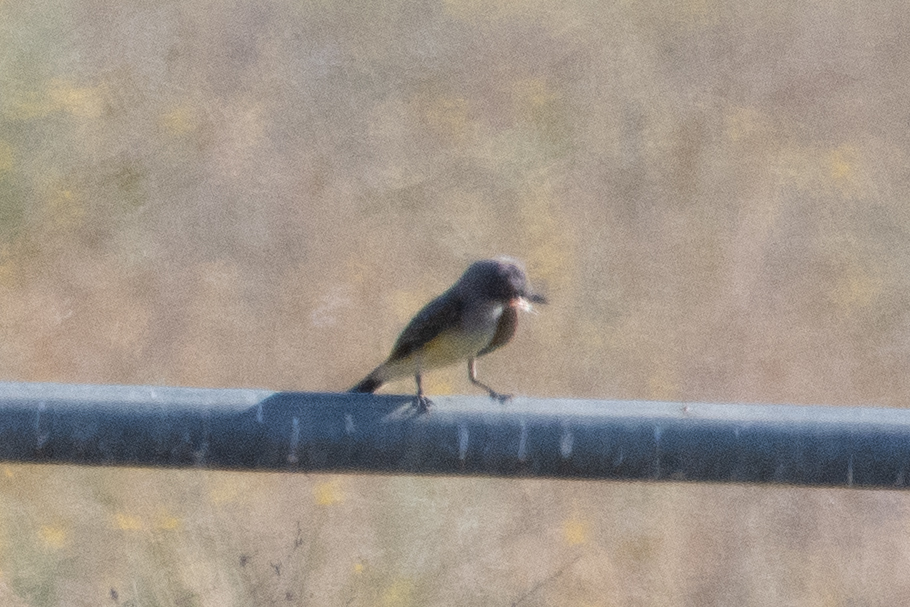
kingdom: Animalia
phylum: Chordata
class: Aves
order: Passeriformes
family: Tyrannidae
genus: Tyrannus
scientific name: Tyrannus verticalis
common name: Western kingbird
